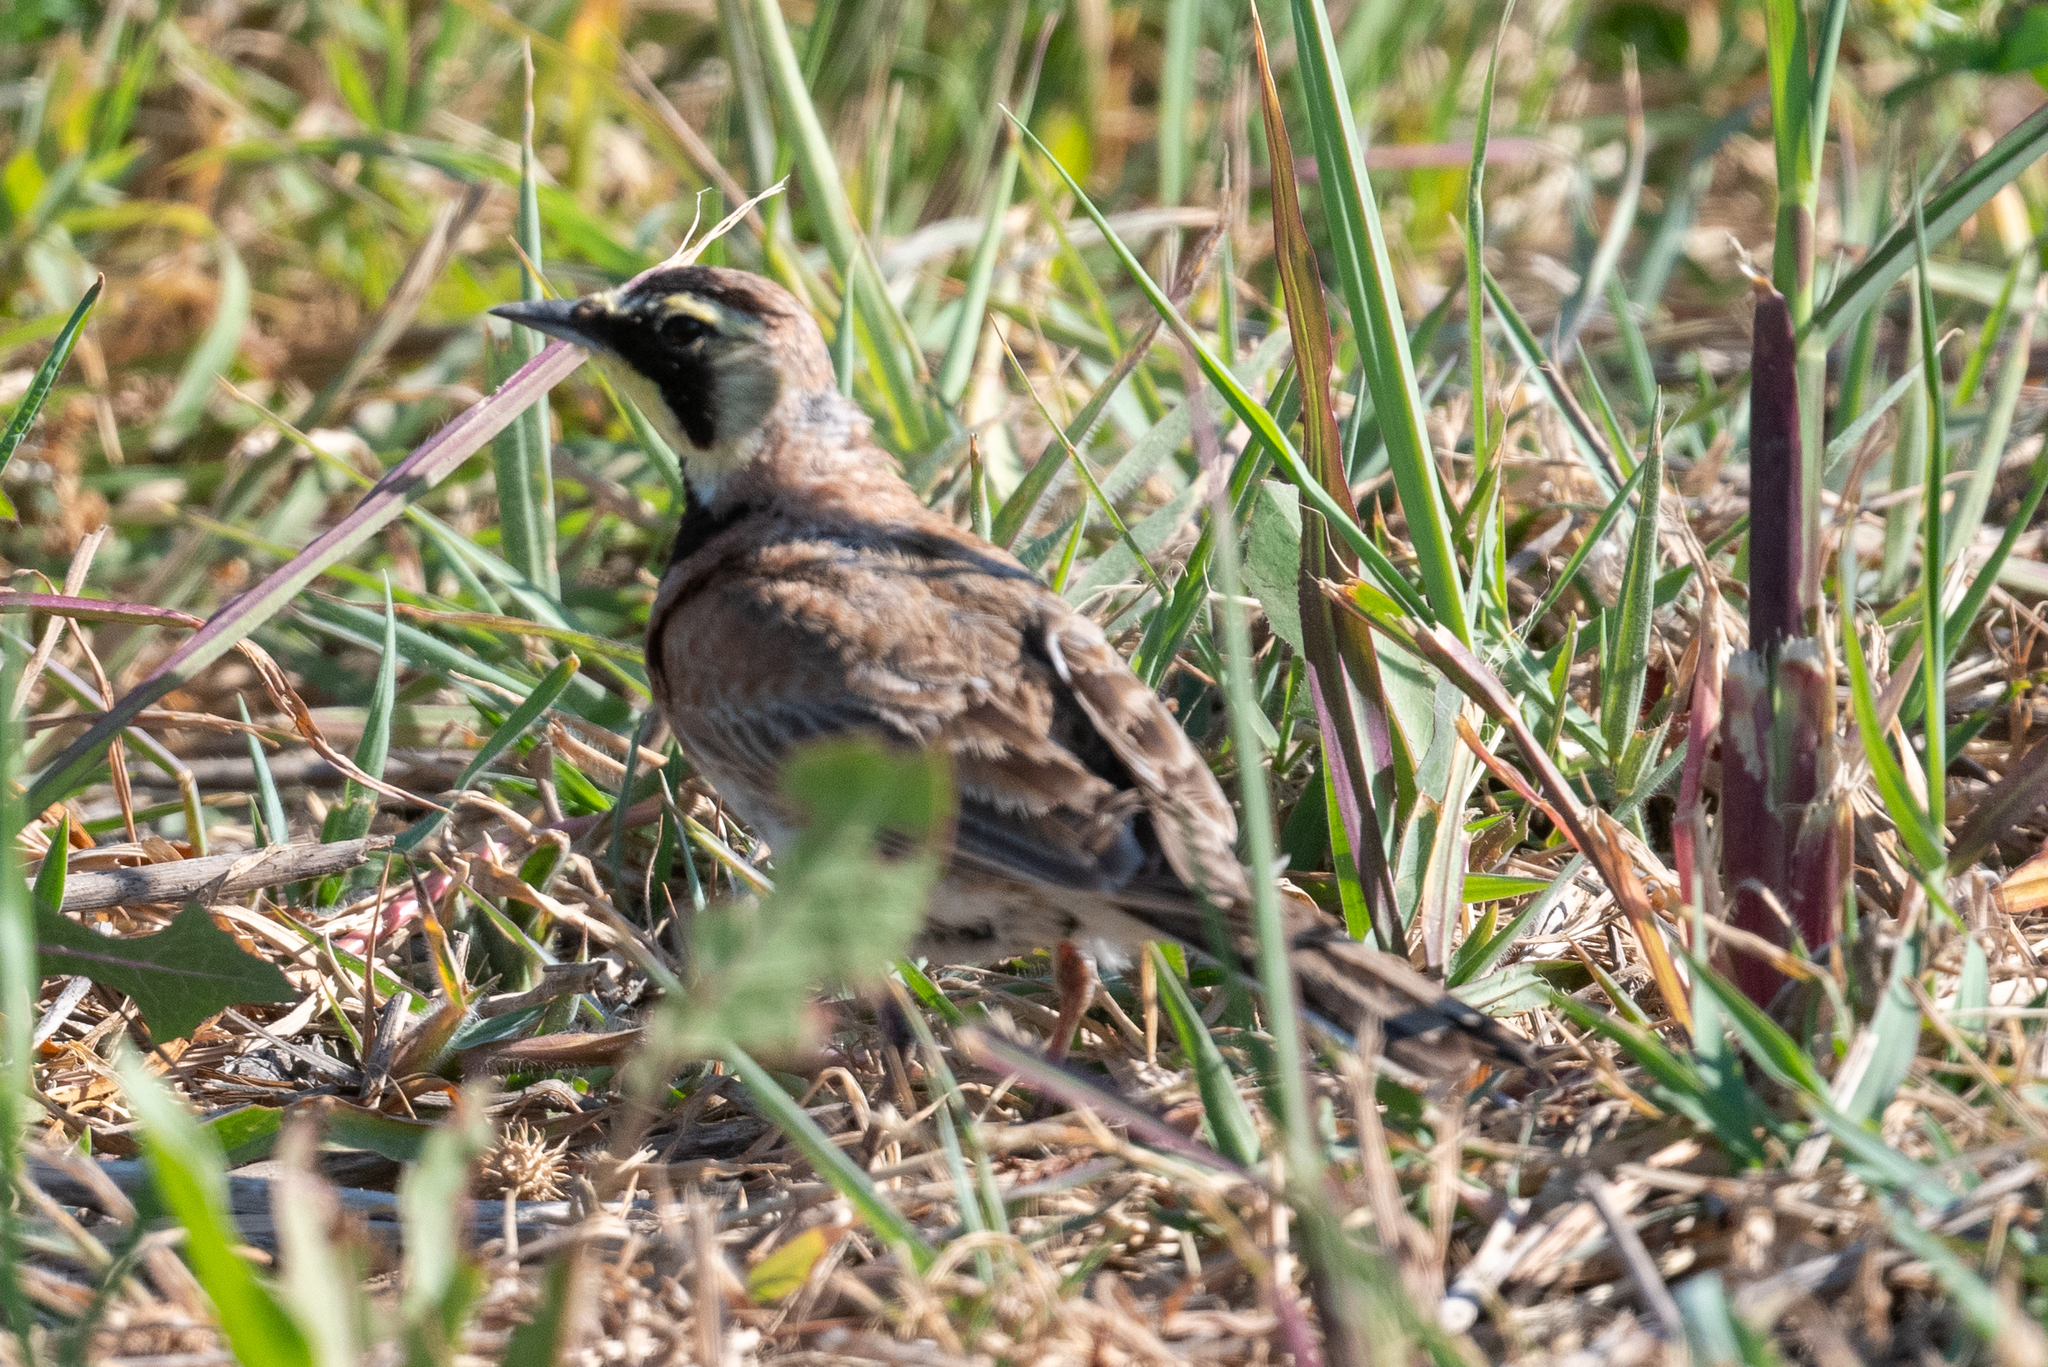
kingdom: Animalia
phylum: Chordata
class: Aves
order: Passeriformes
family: Alaudidae
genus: Eremophila
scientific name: Eremophila alpestris
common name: Horned lark
